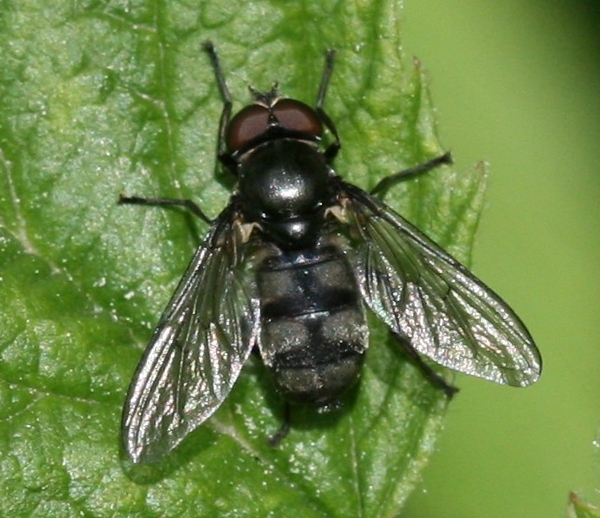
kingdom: Animalia
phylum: Arthropoda
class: Insecta
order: Diptera
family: Syrphidae
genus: Portevinia
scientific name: Portevinia maculata
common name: Ramson's hoverfly
